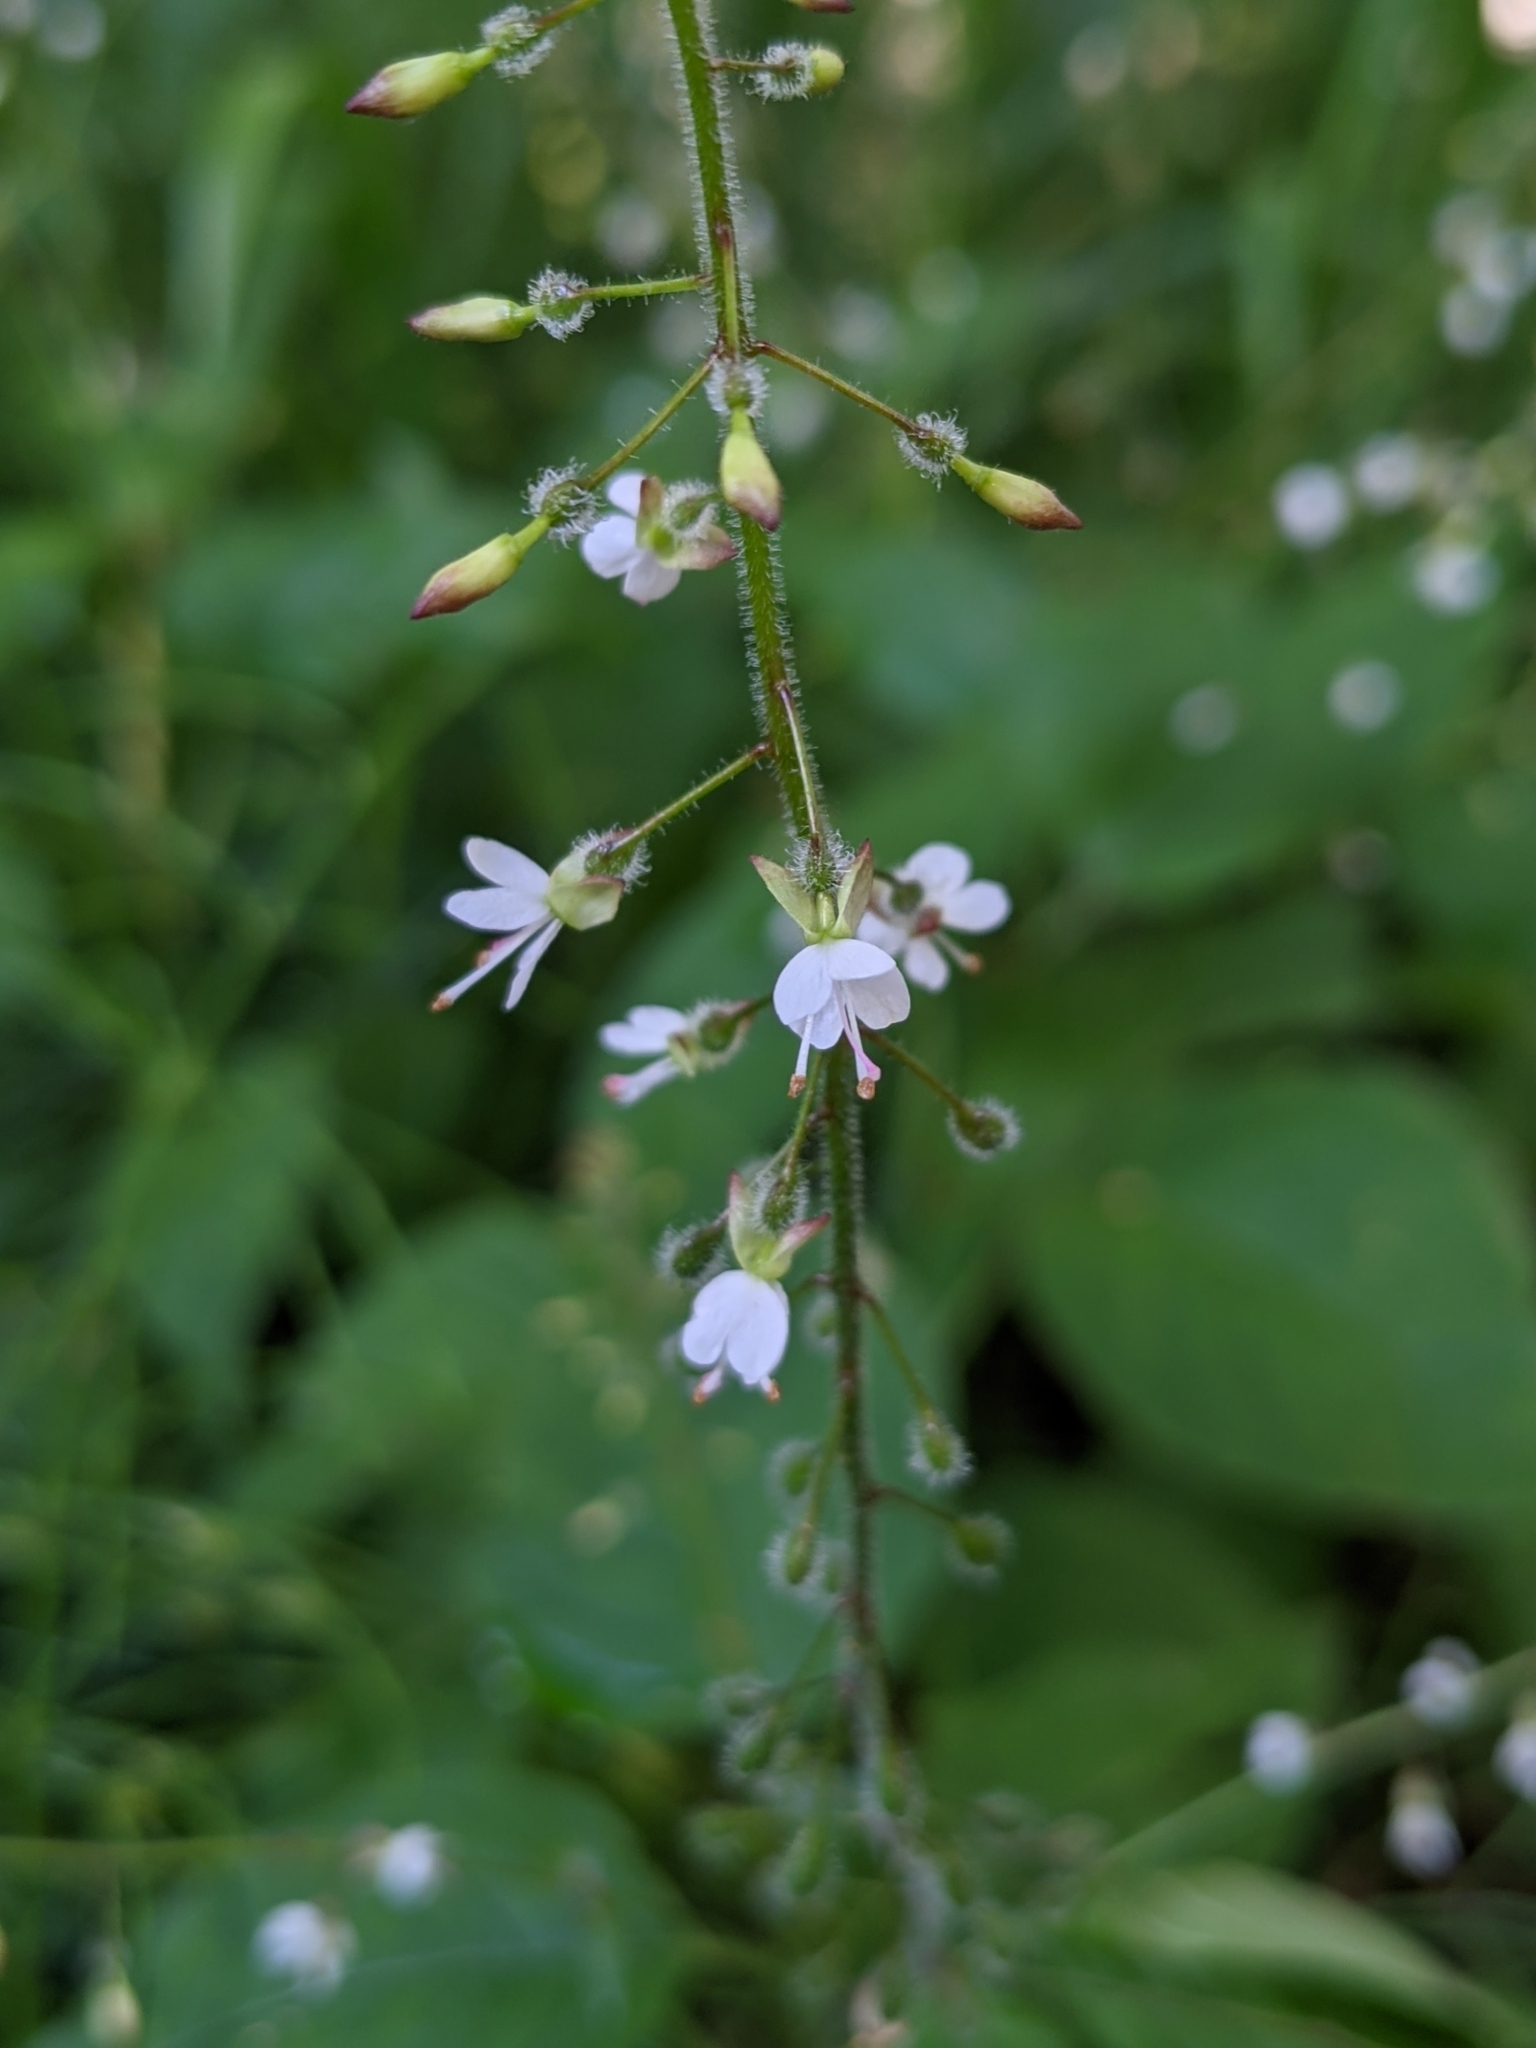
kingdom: Plantae
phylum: Tracheophyta
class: Magnoliopsida
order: Myrtales
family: Onagraceae
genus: Circaea
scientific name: Circaea lutetiana
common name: Enchanter's-nightshade
